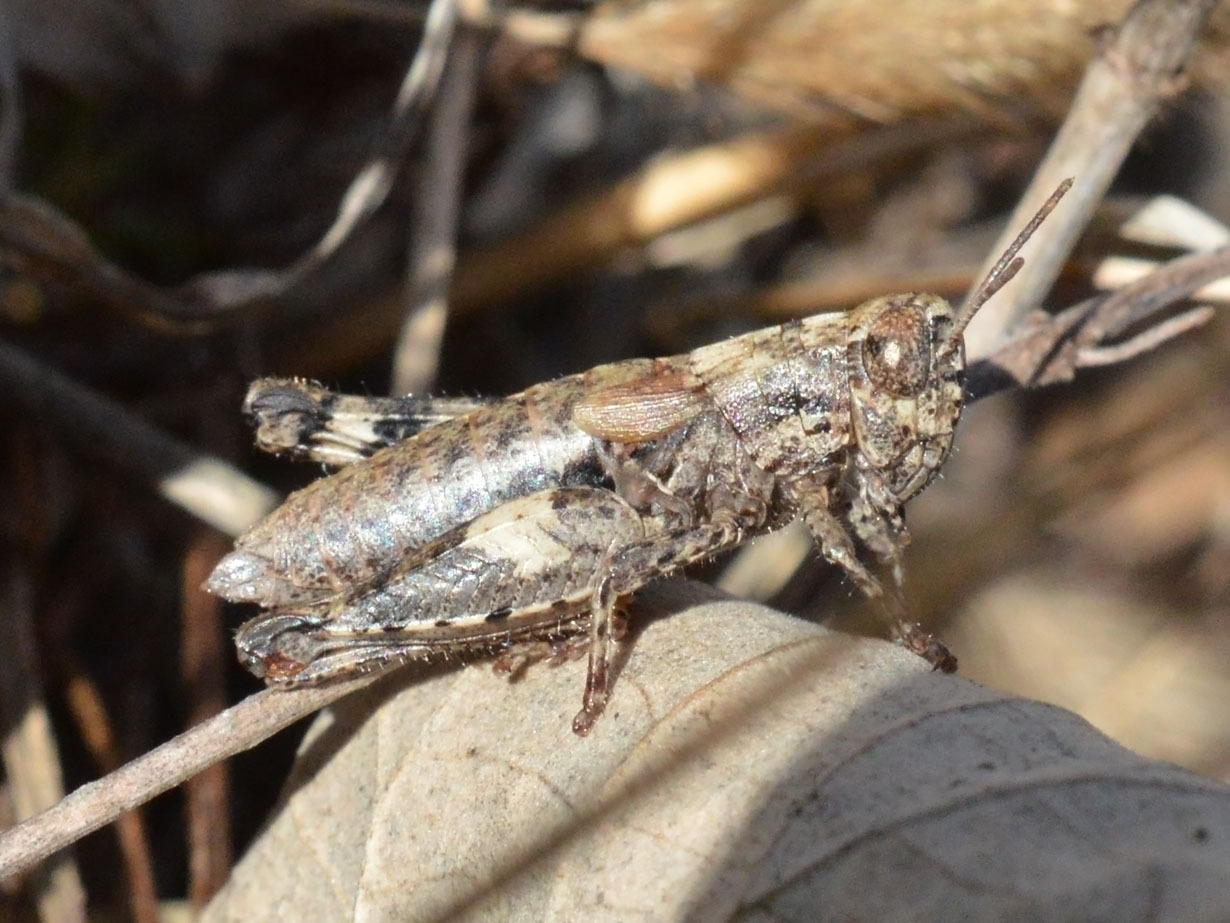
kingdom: Animalia
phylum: Arthropoda
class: Insecta
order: Orthoptera
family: Acrididae
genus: Pezotettix
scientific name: Pezotettix giornae
